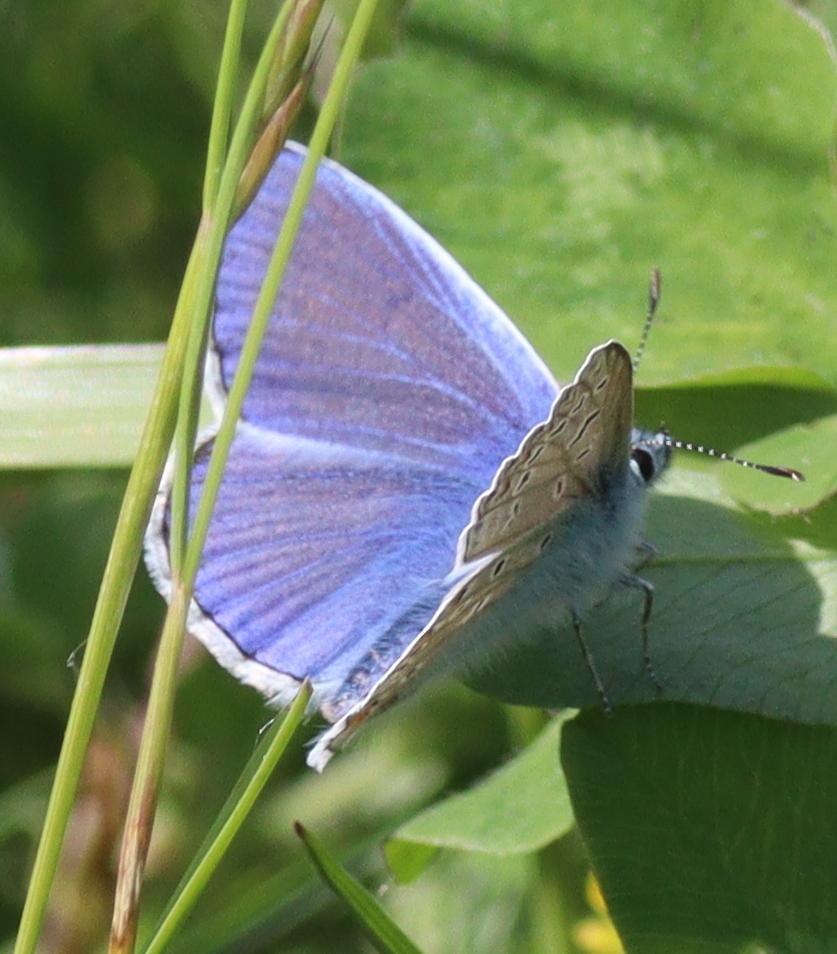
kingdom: Animalia
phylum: Arthropoda
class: Insecta
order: Lepidoptera
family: Lycaenidae
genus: Polyommatus
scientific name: Polyommatus icarus
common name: Common blue
